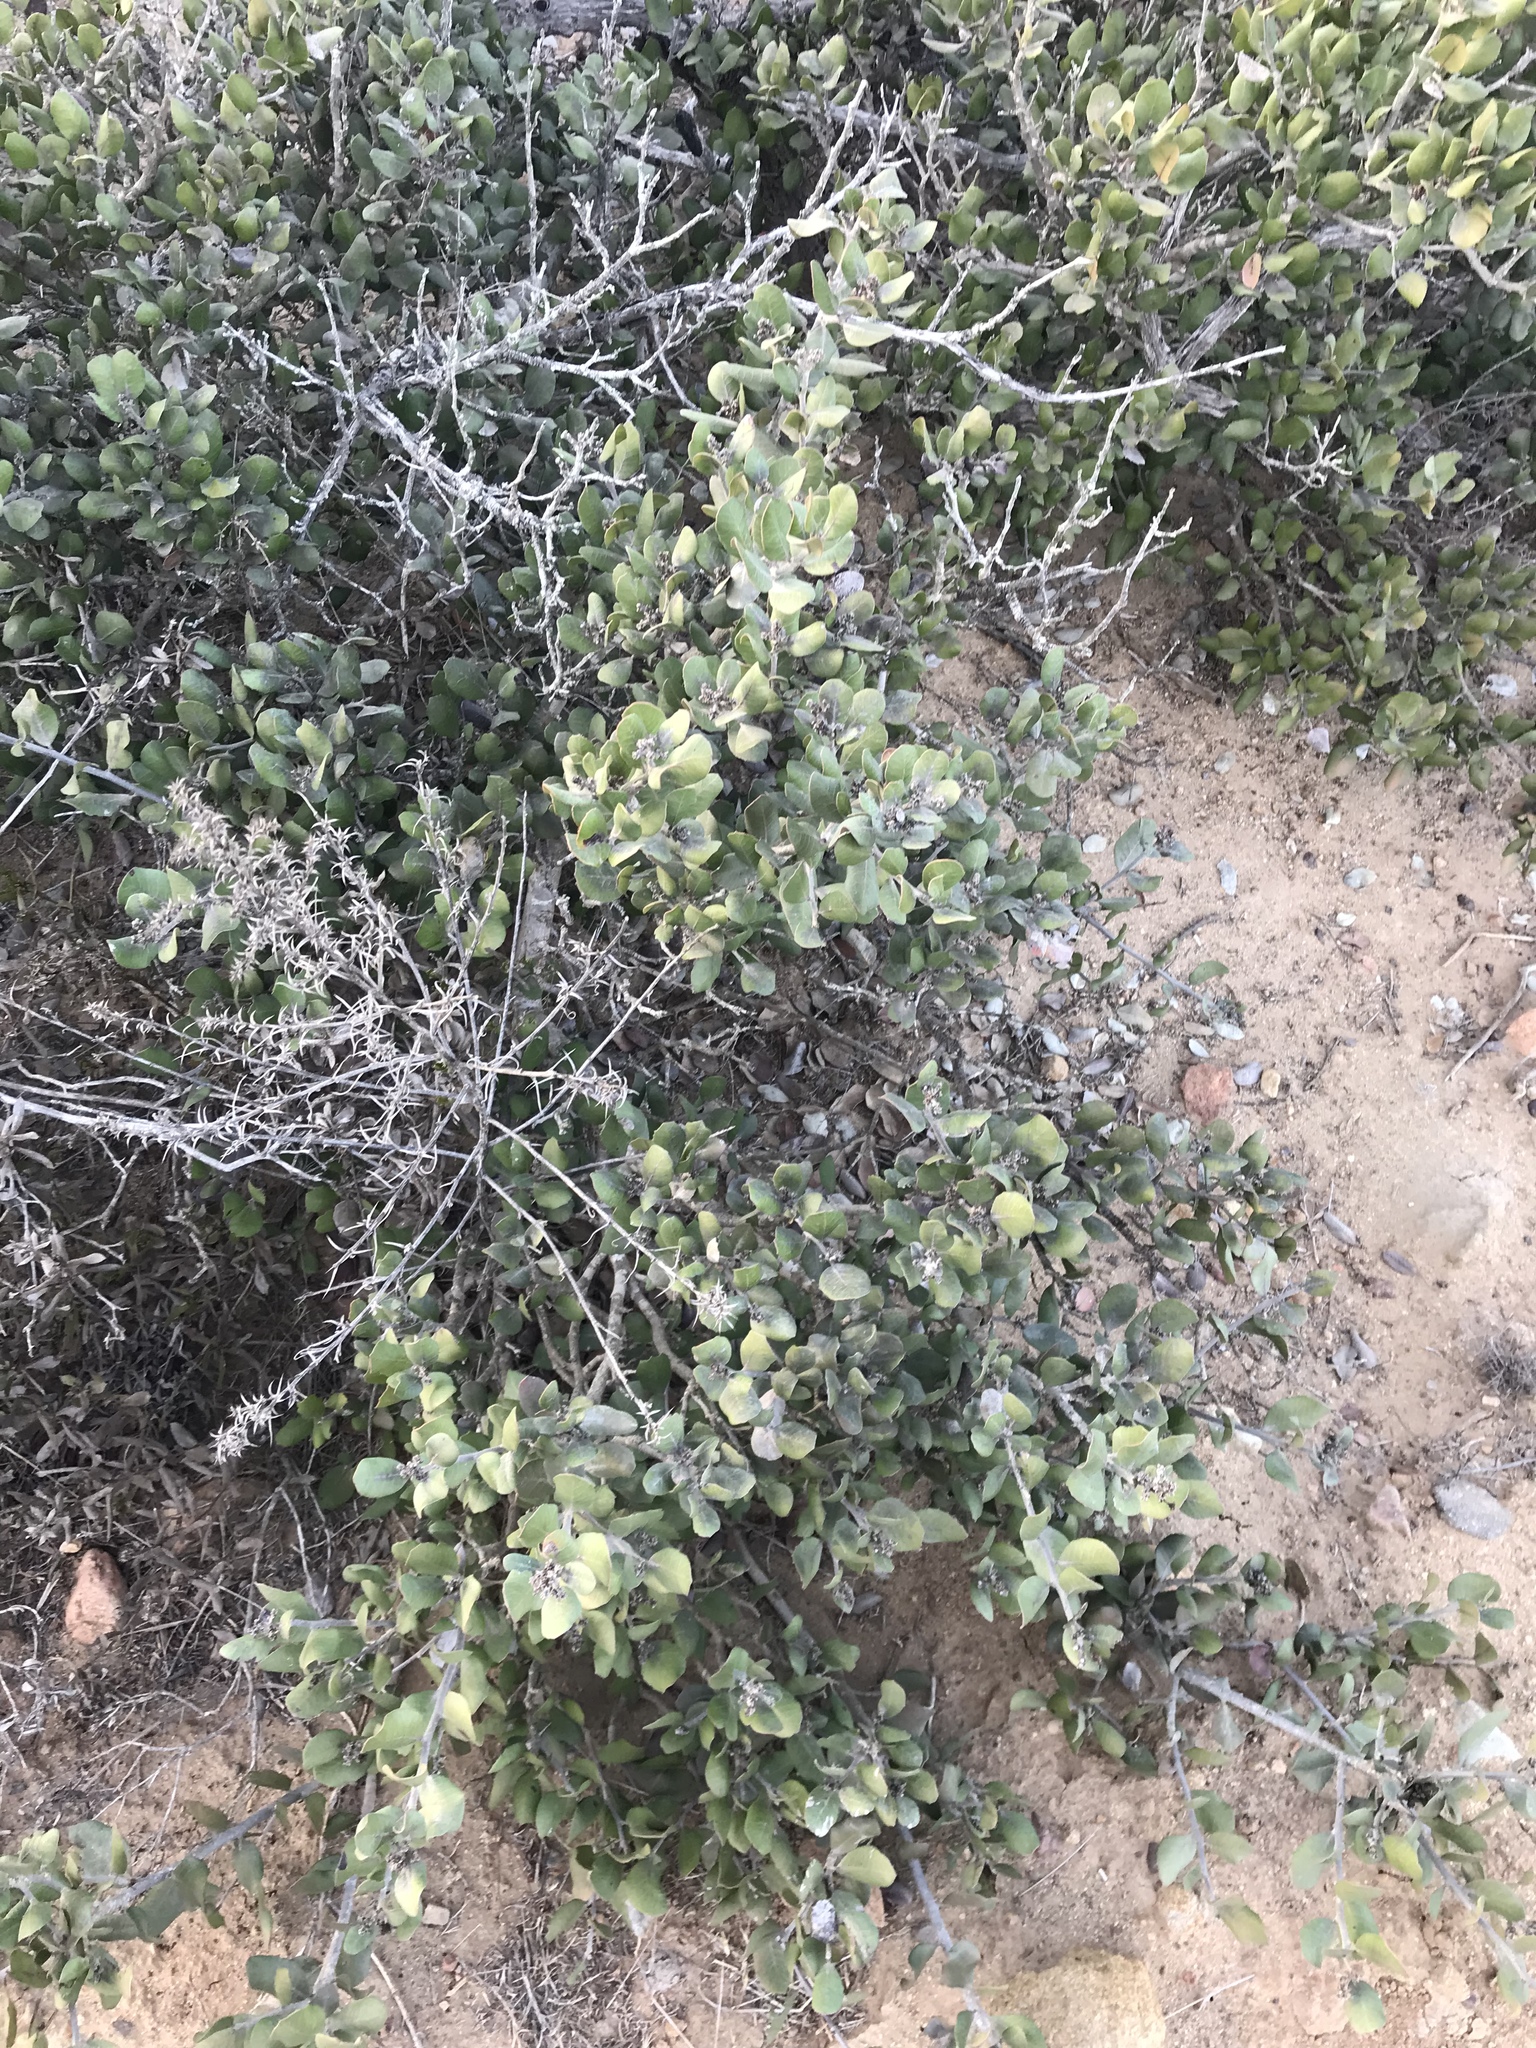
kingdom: Plantae
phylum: Tracheophyta
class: Magnoliopsida
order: Sapindales
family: Anacardiaceae
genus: Rhus
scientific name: Rhus integrifolia
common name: Lemonade sumac
